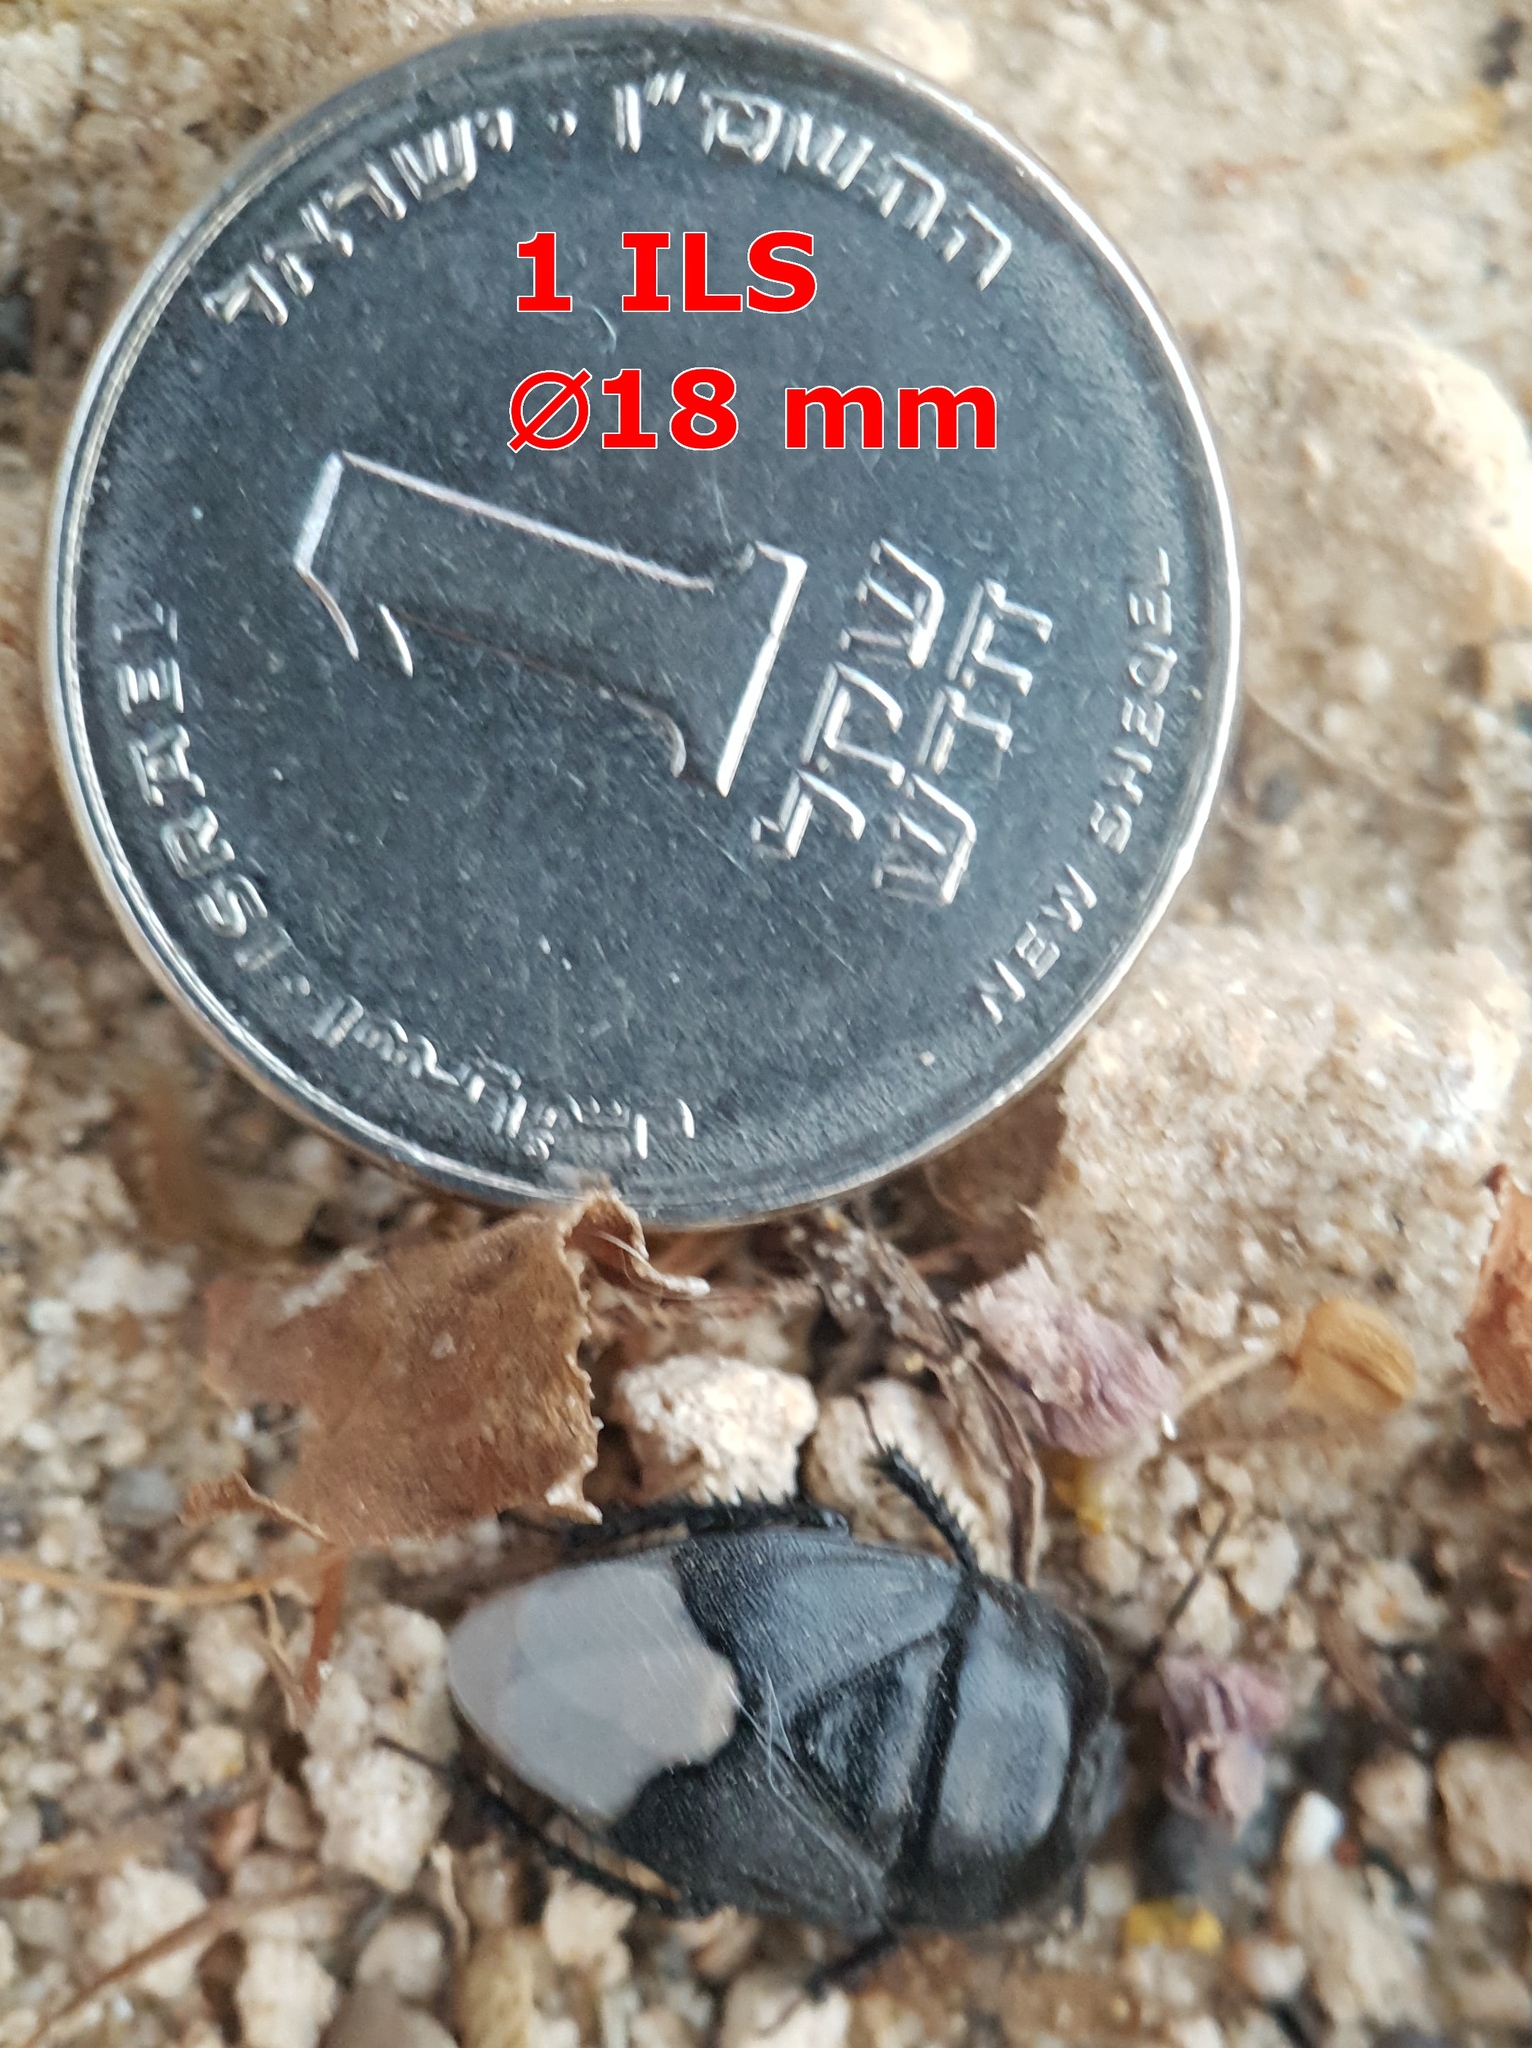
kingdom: Animalia
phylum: Arthropoda
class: Insecta
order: Hemiptera
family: Cydnidae
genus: Cydnus
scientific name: Cydnus aterrimus
